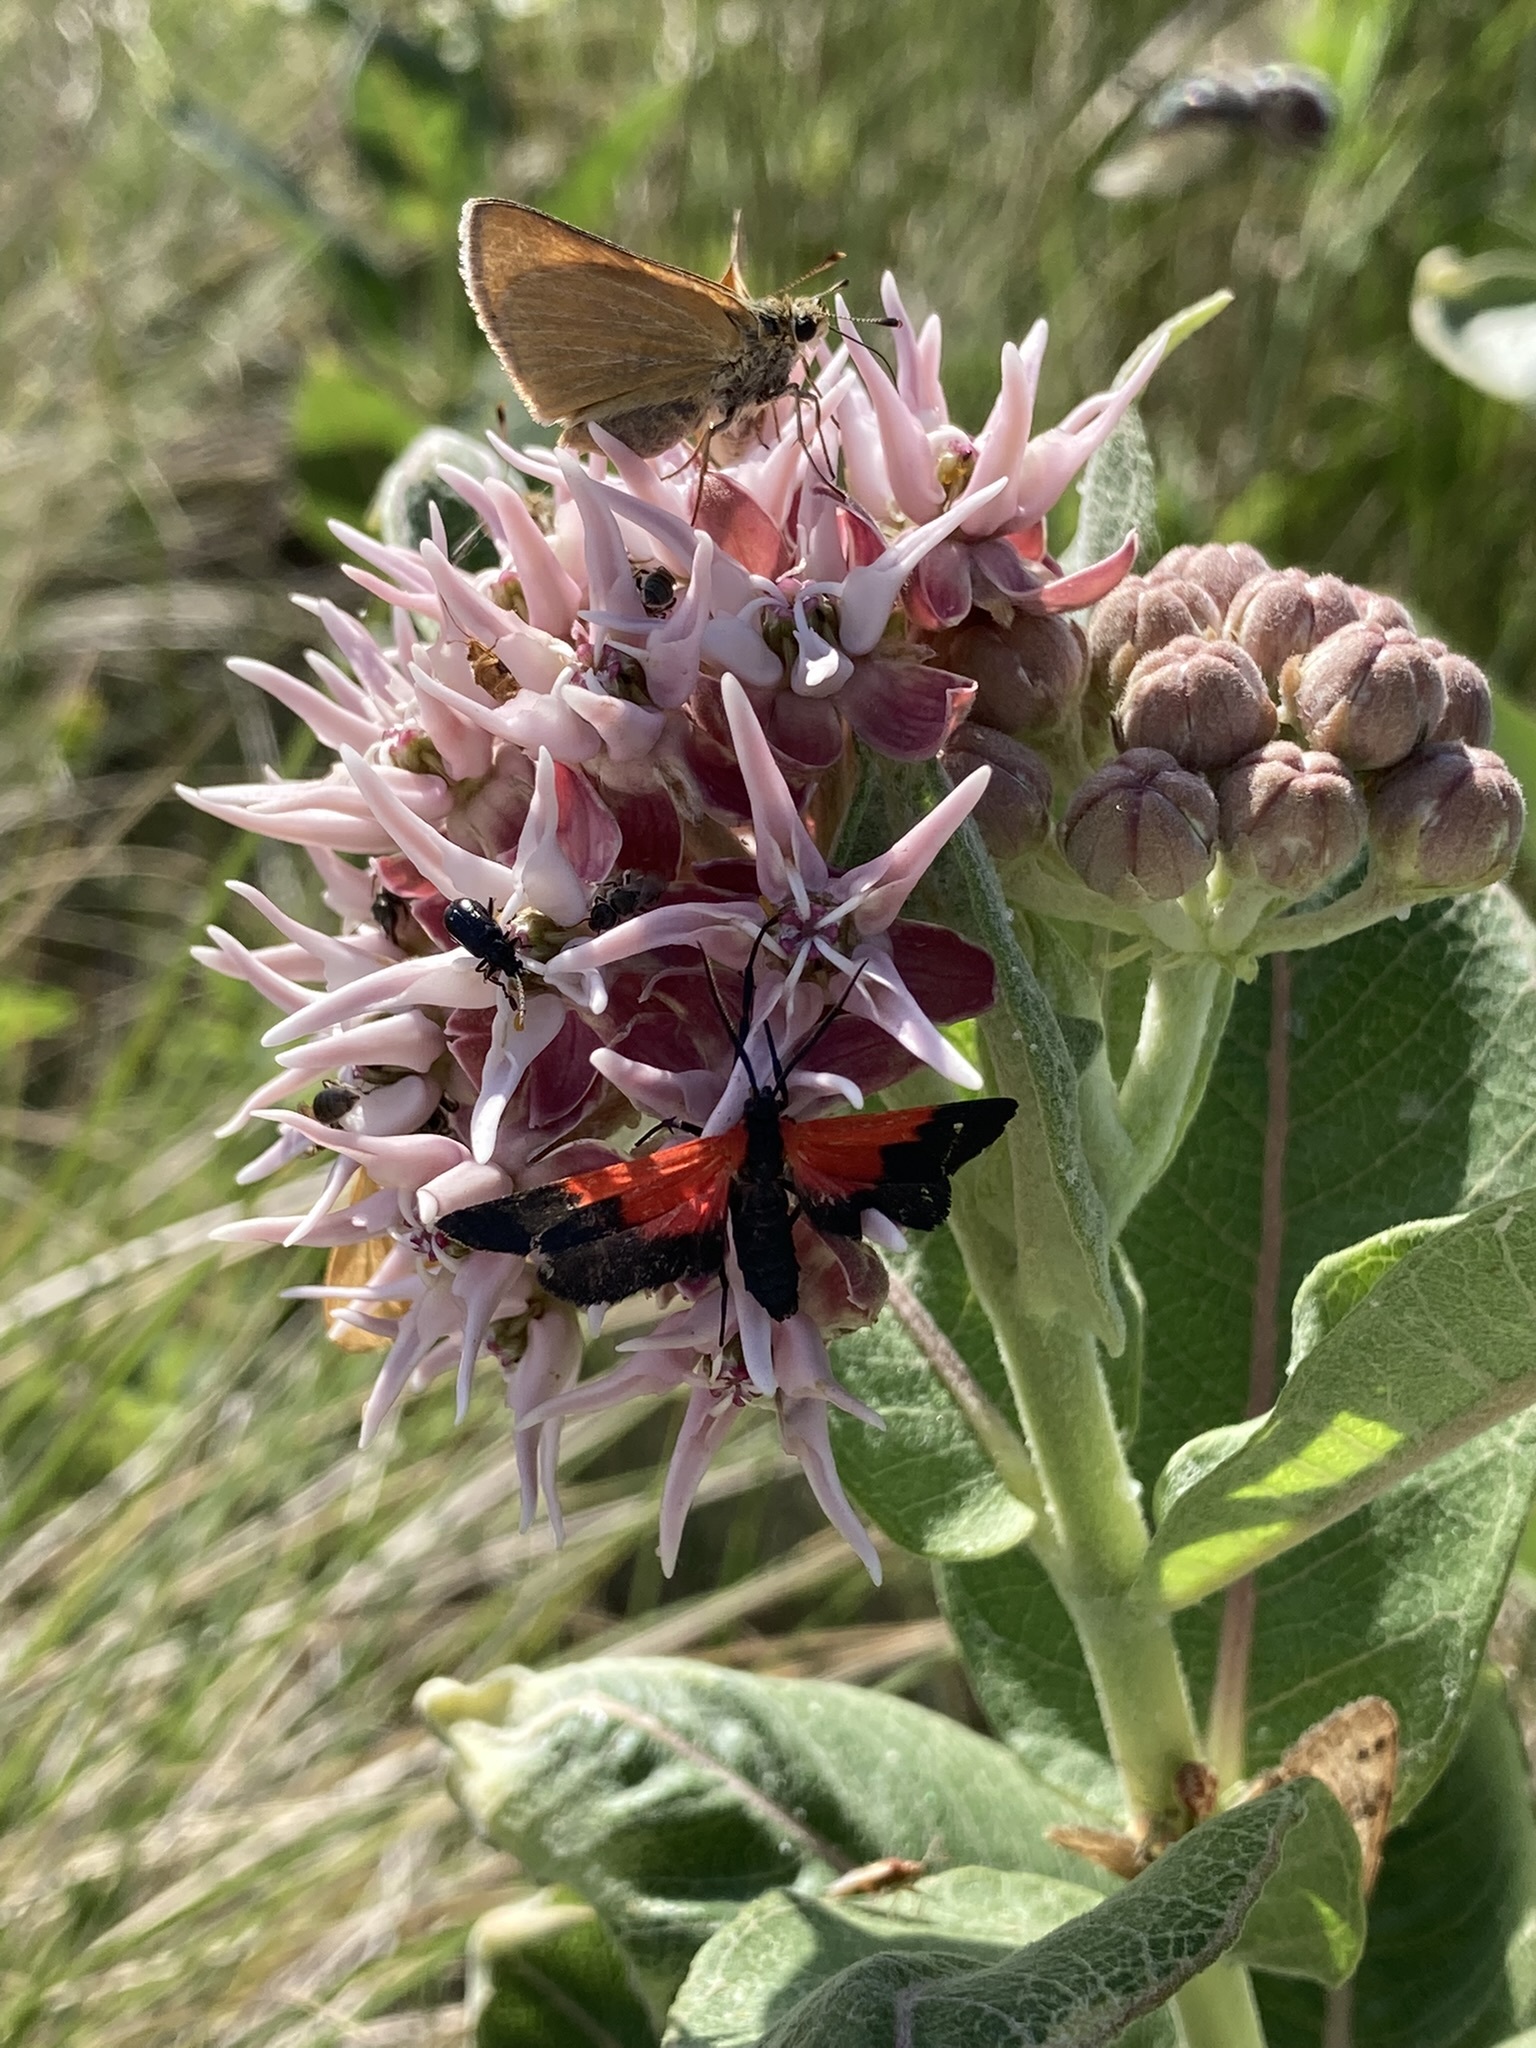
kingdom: Animalia
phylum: Arthropoda
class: Insecta
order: Lepidoptera
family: Erebidae
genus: Lycomorpha
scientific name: Lycomorpha pholus
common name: Black-and-yellow lichen moth
